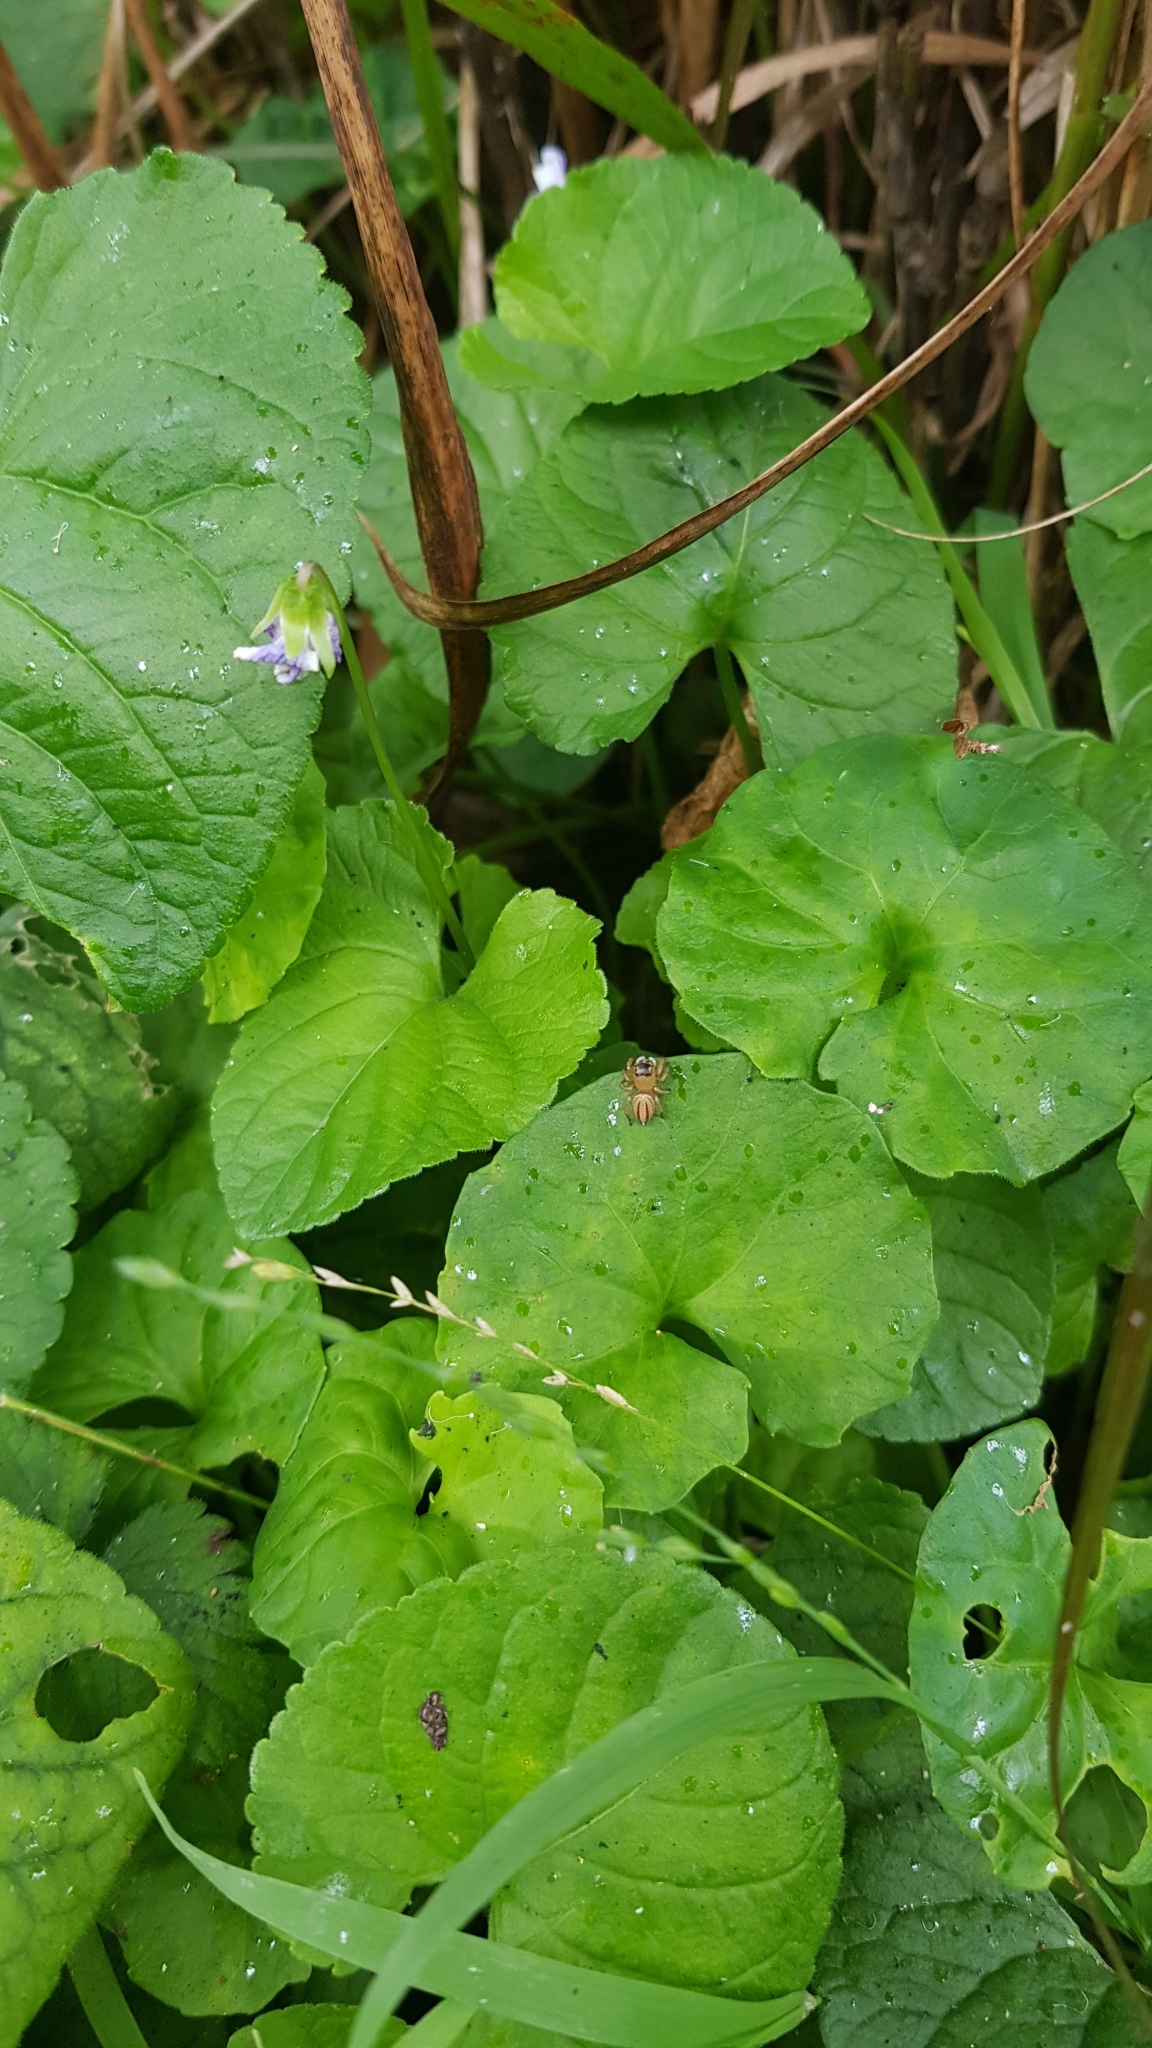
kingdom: Animalia
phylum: Arthropoda
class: Arachnida
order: Araneae
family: Salticidae
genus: Maratus
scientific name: Maratus scutulatus
